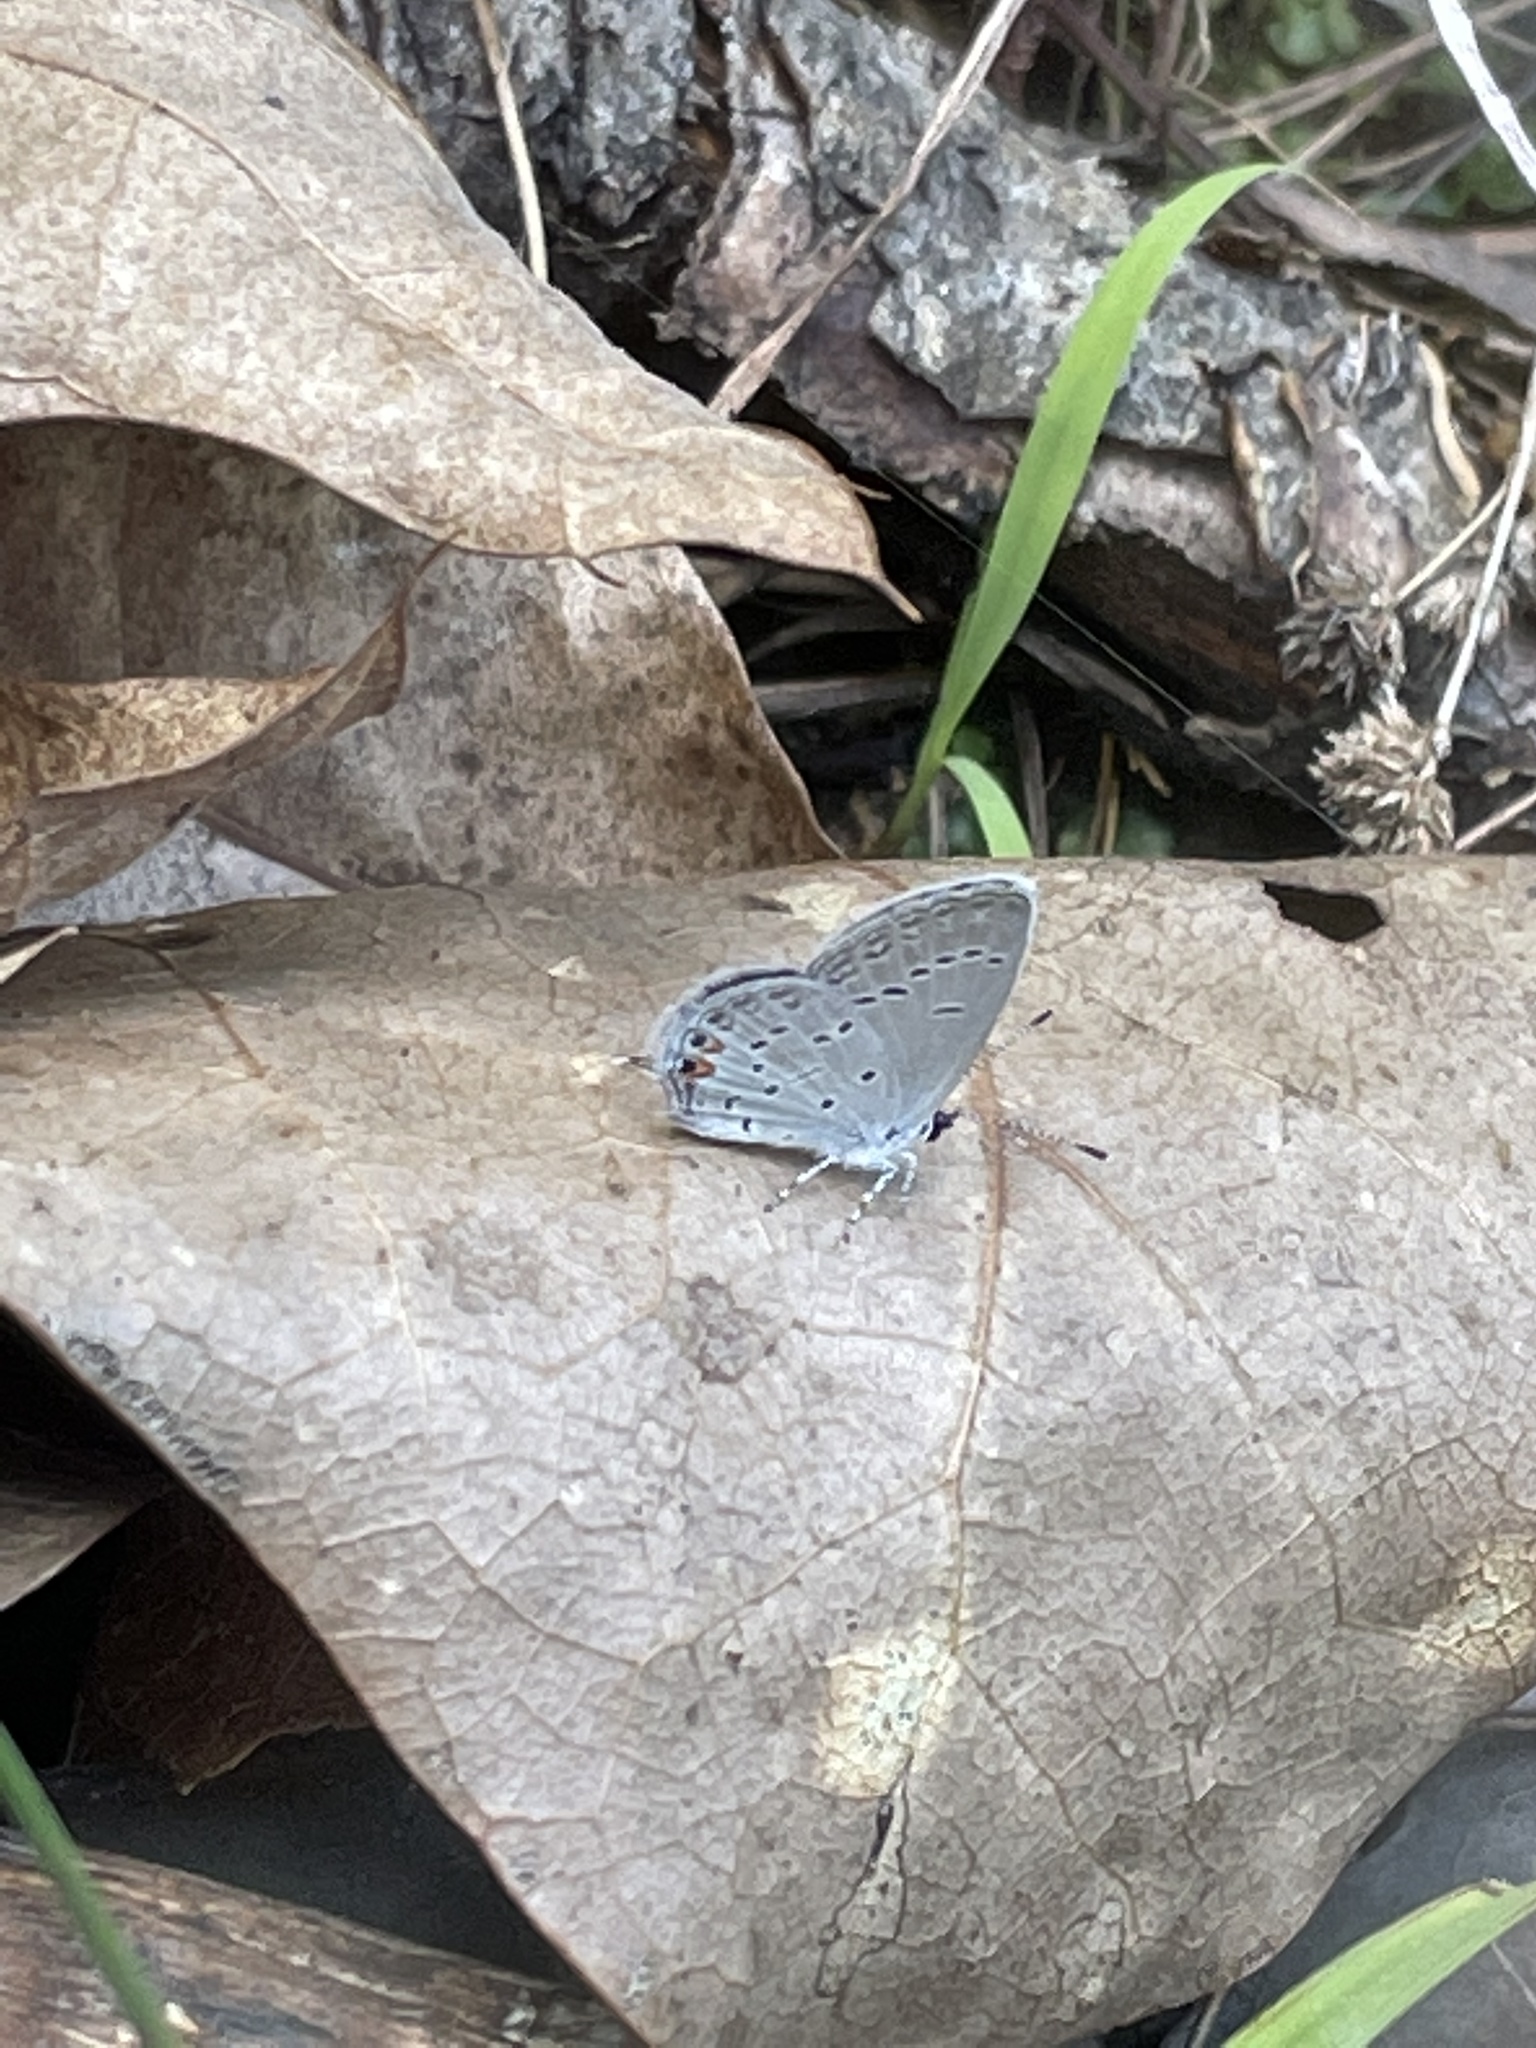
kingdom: Animalia
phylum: Arthropoda
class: Insecta
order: Lepidoptera
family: Lycaenidae
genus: Elkalyce
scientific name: Elkalyce comyntas
